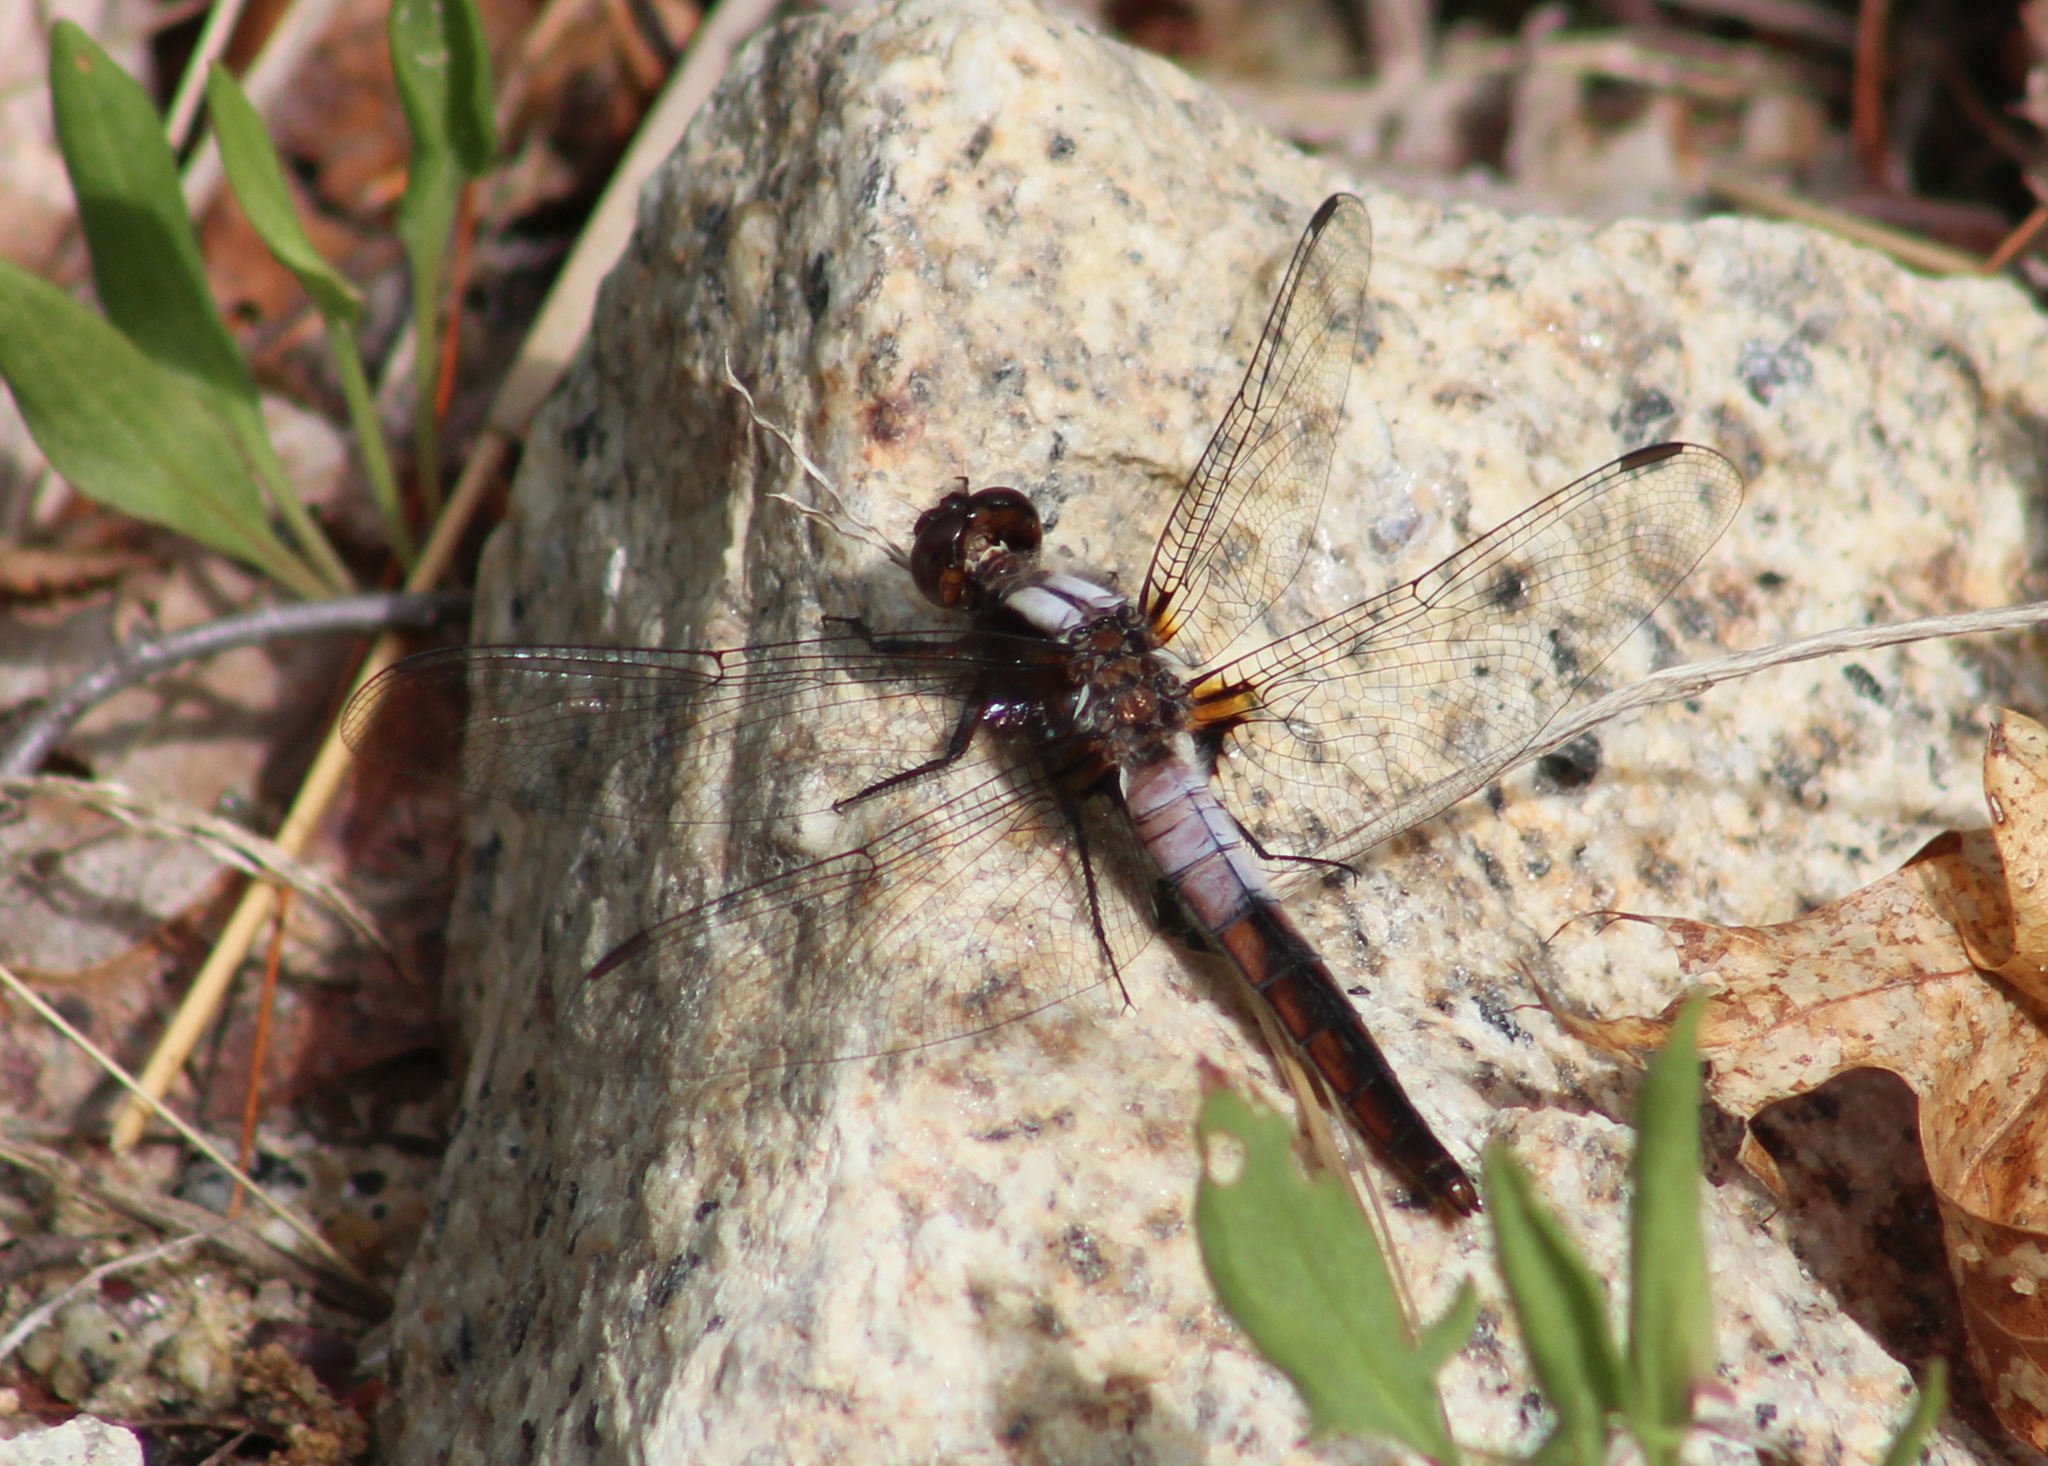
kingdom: Animalia
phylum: Arthropoda
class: Insecta
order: Odonata
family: Libellulidae
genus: Ladona
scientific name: Ladona julia
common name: Chalk-fronted corporal
